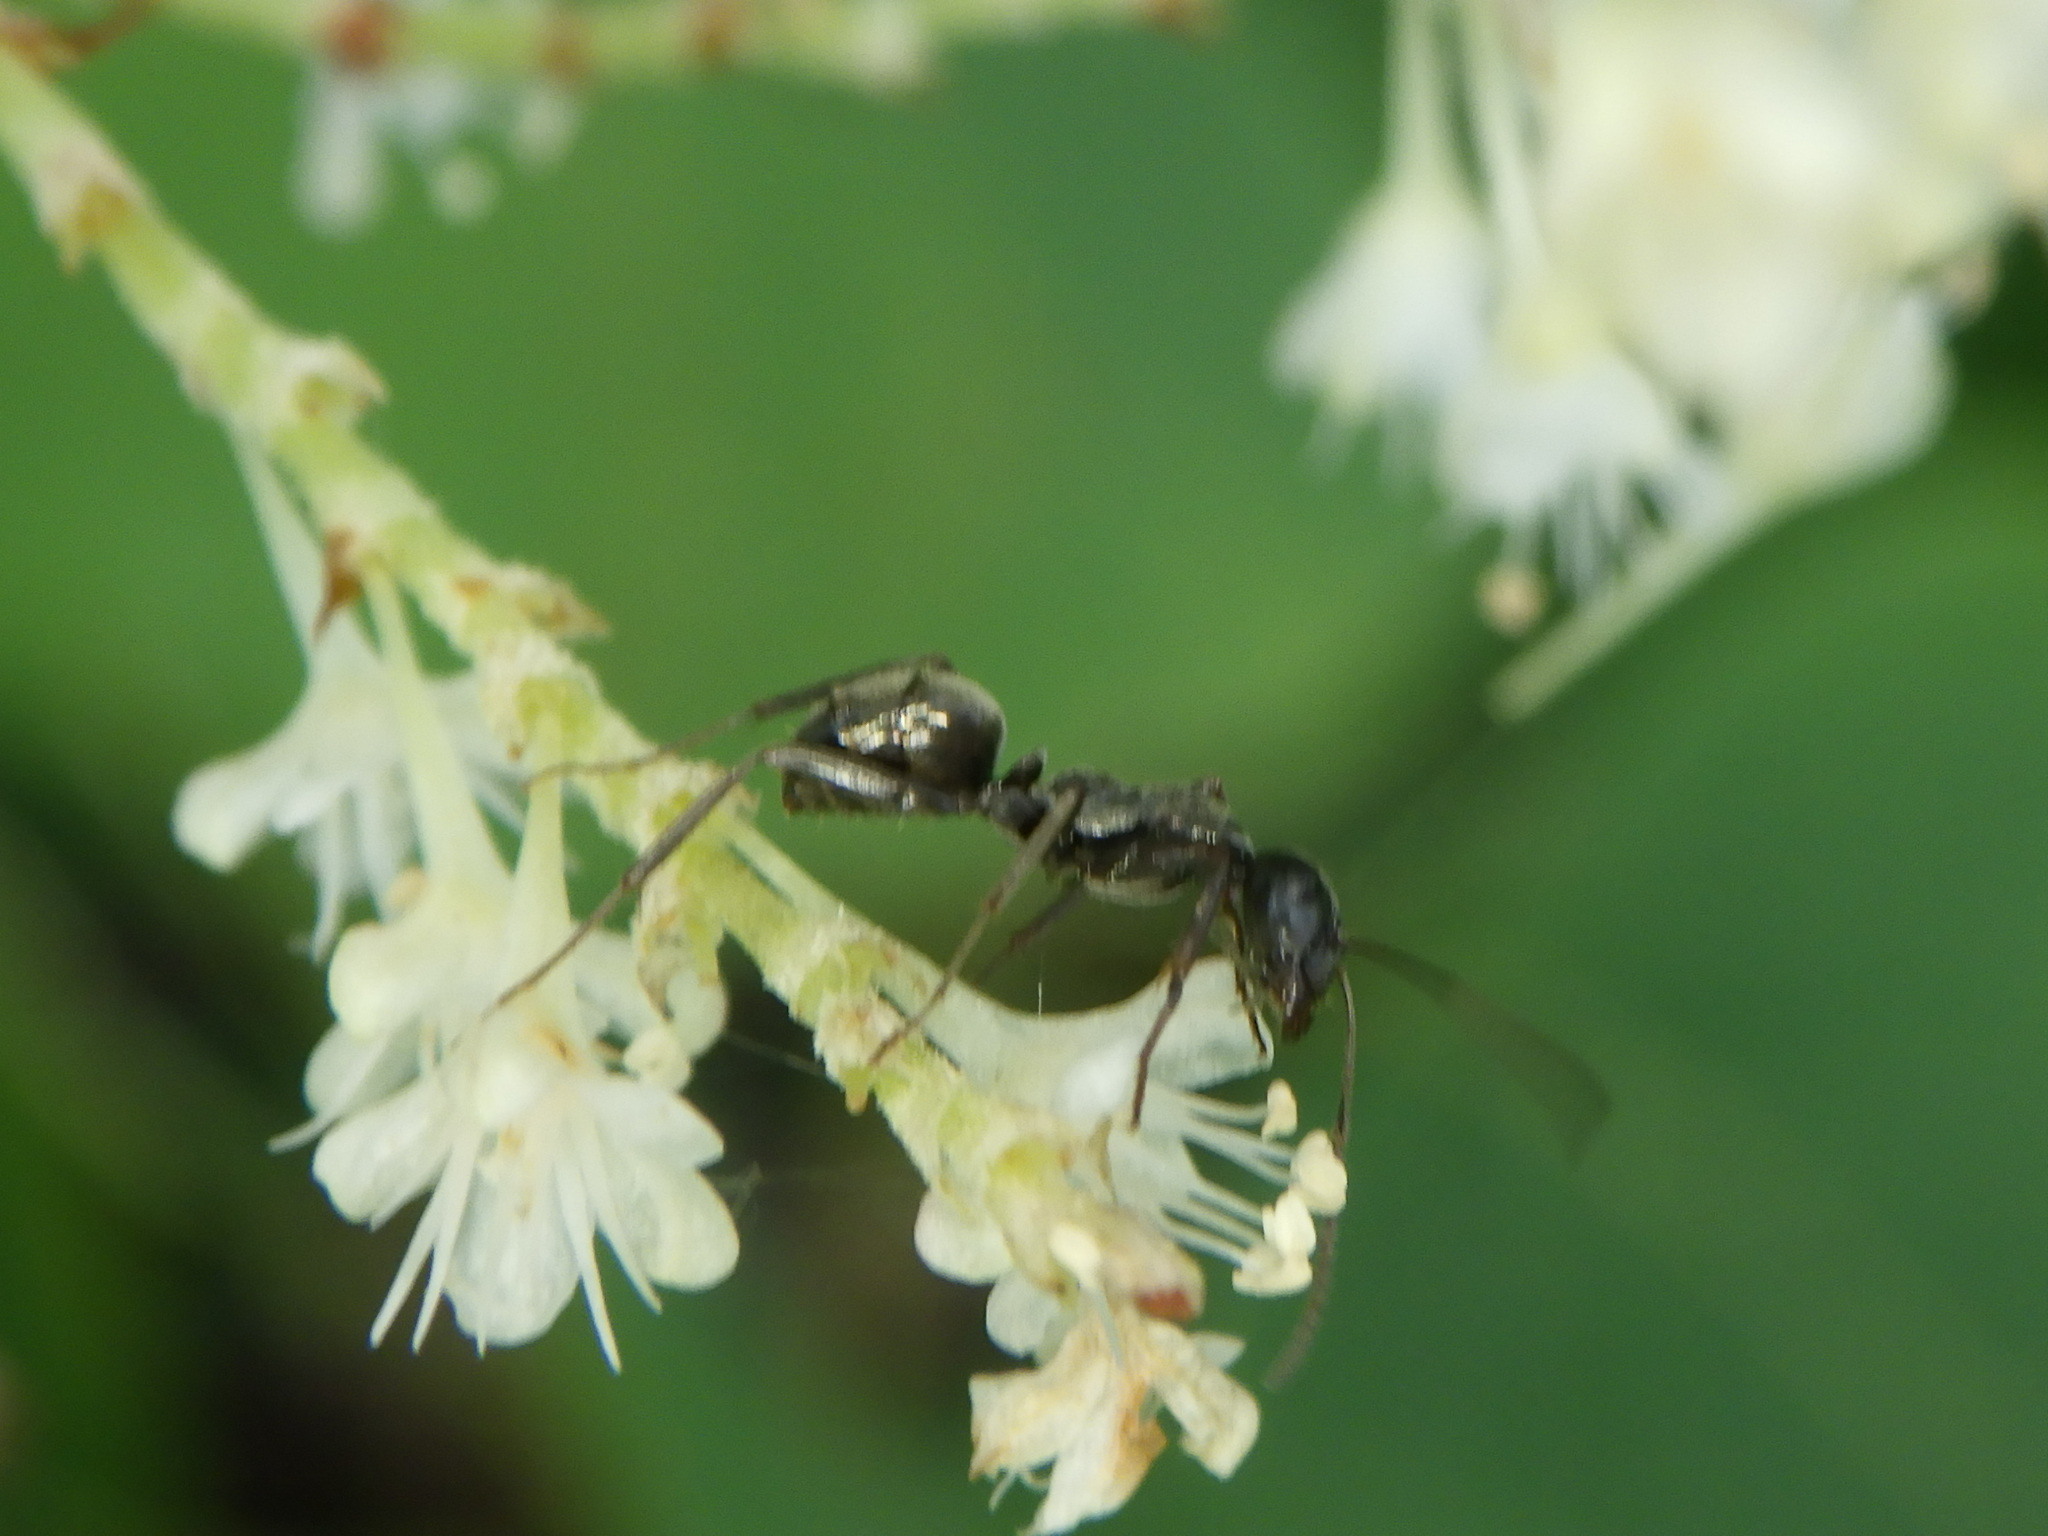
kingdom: Animalia
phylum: Arthropoda
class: Insecta
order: Hymenoptera
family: Formicidae
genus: Formica
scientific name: Formica
